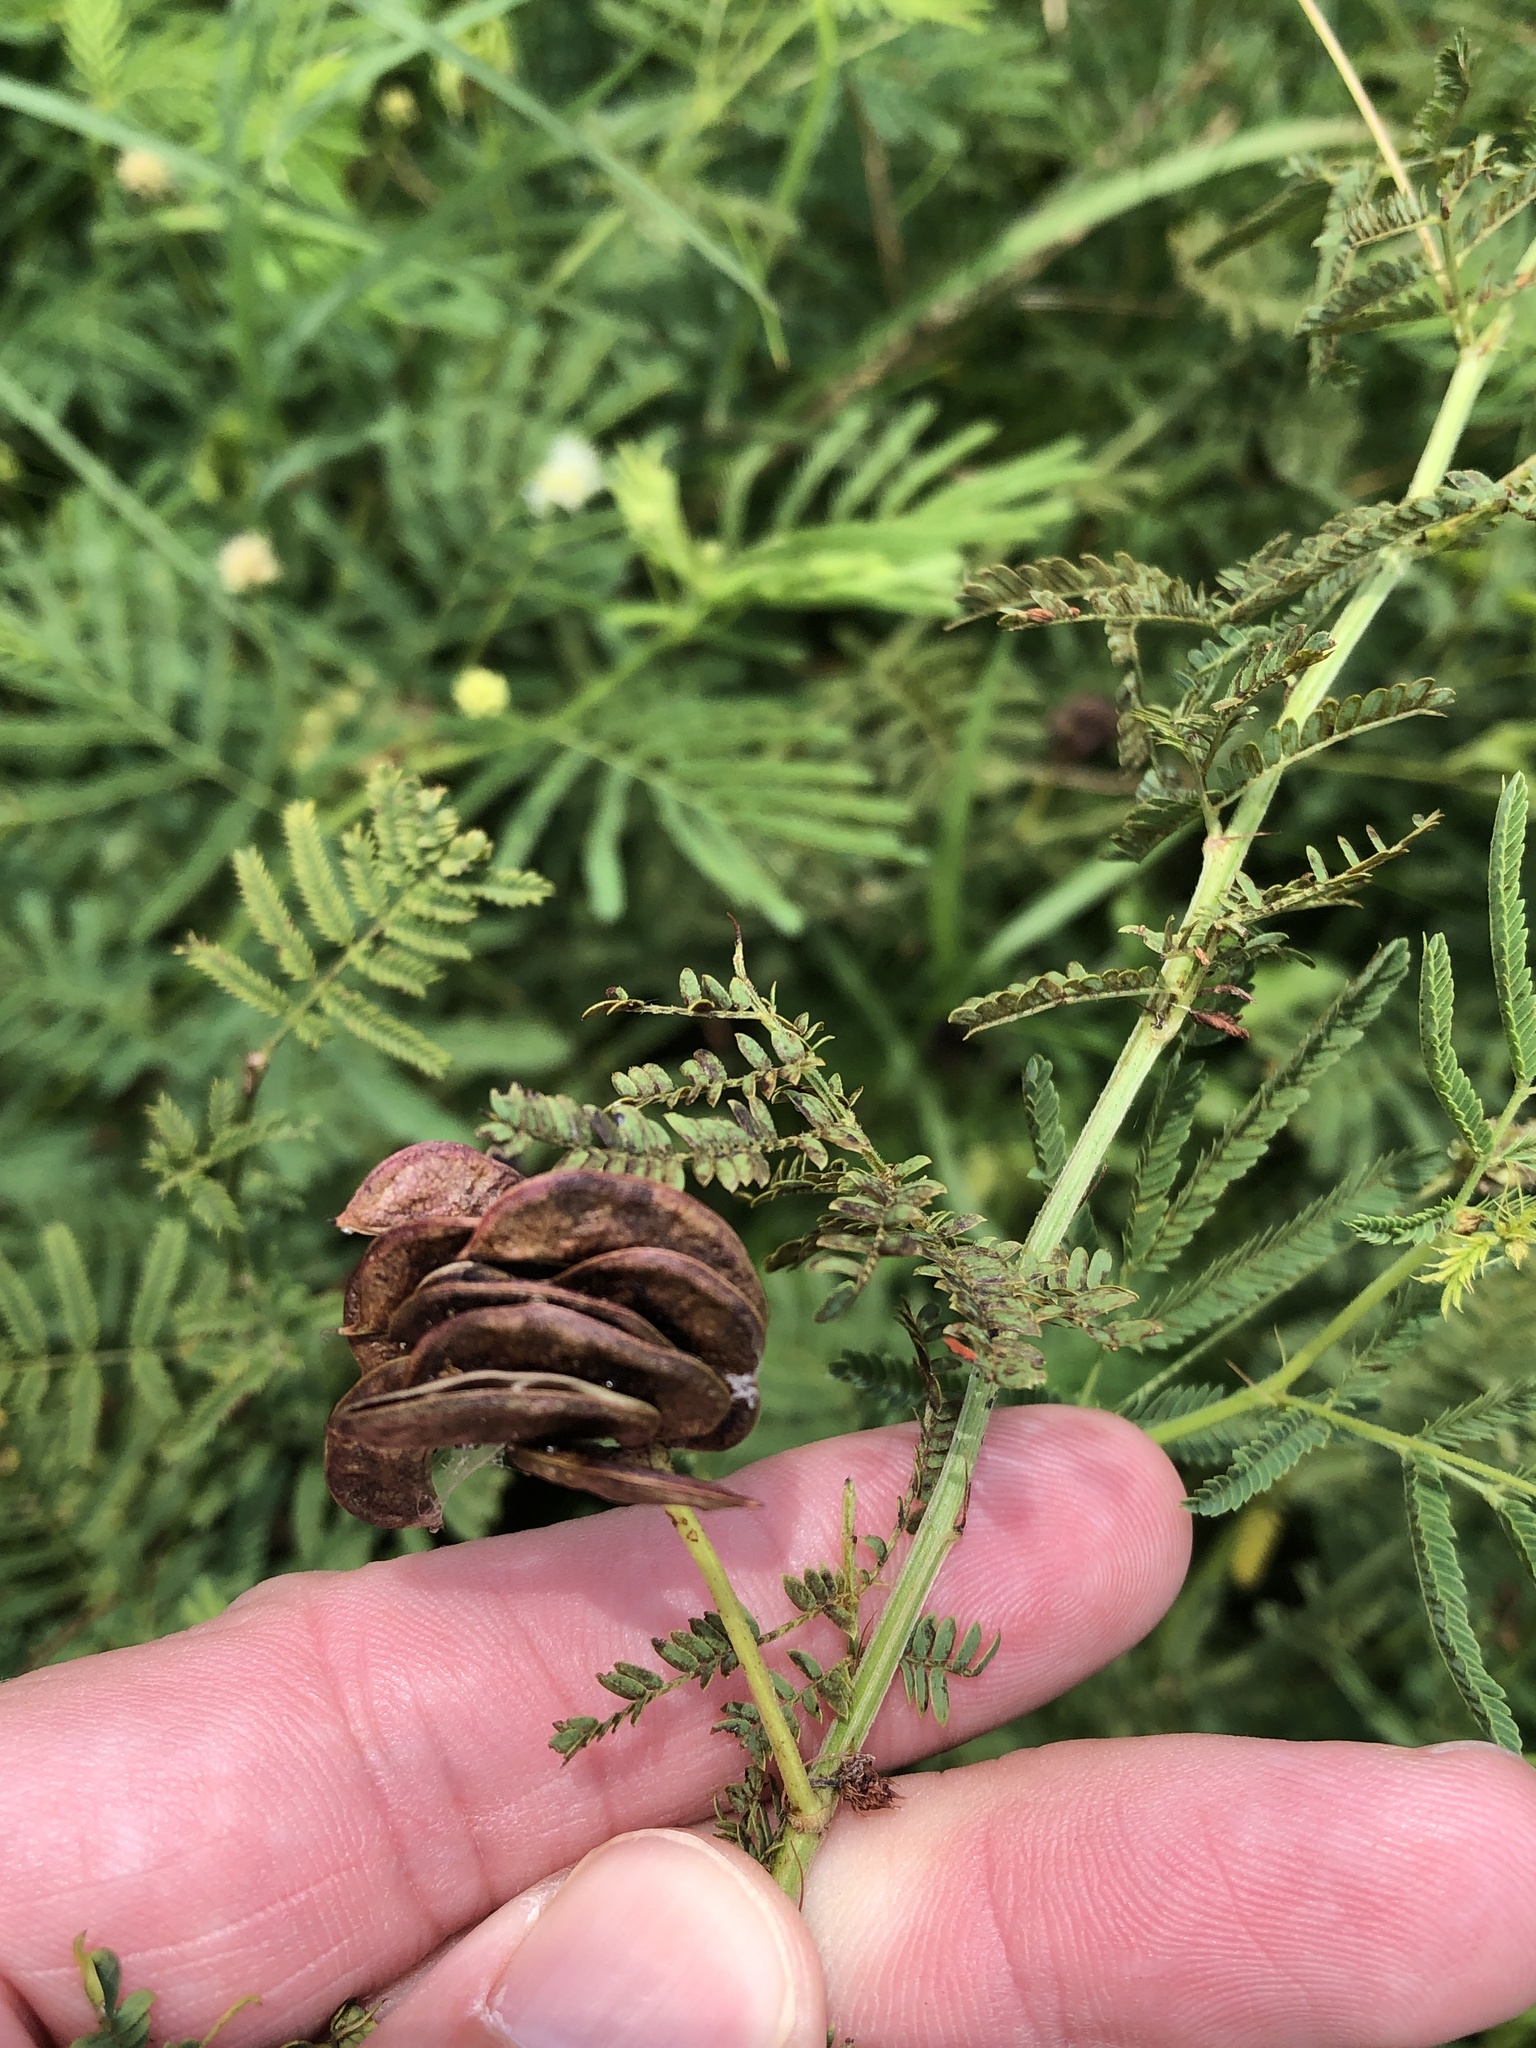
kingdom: Plantae
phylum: Tracheophyta
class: Magnoliopsida
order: Fabales
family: Fabaceae
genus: Desmanthus
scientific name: Desmanthus illinoensis
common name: Illinois bundle-flower
